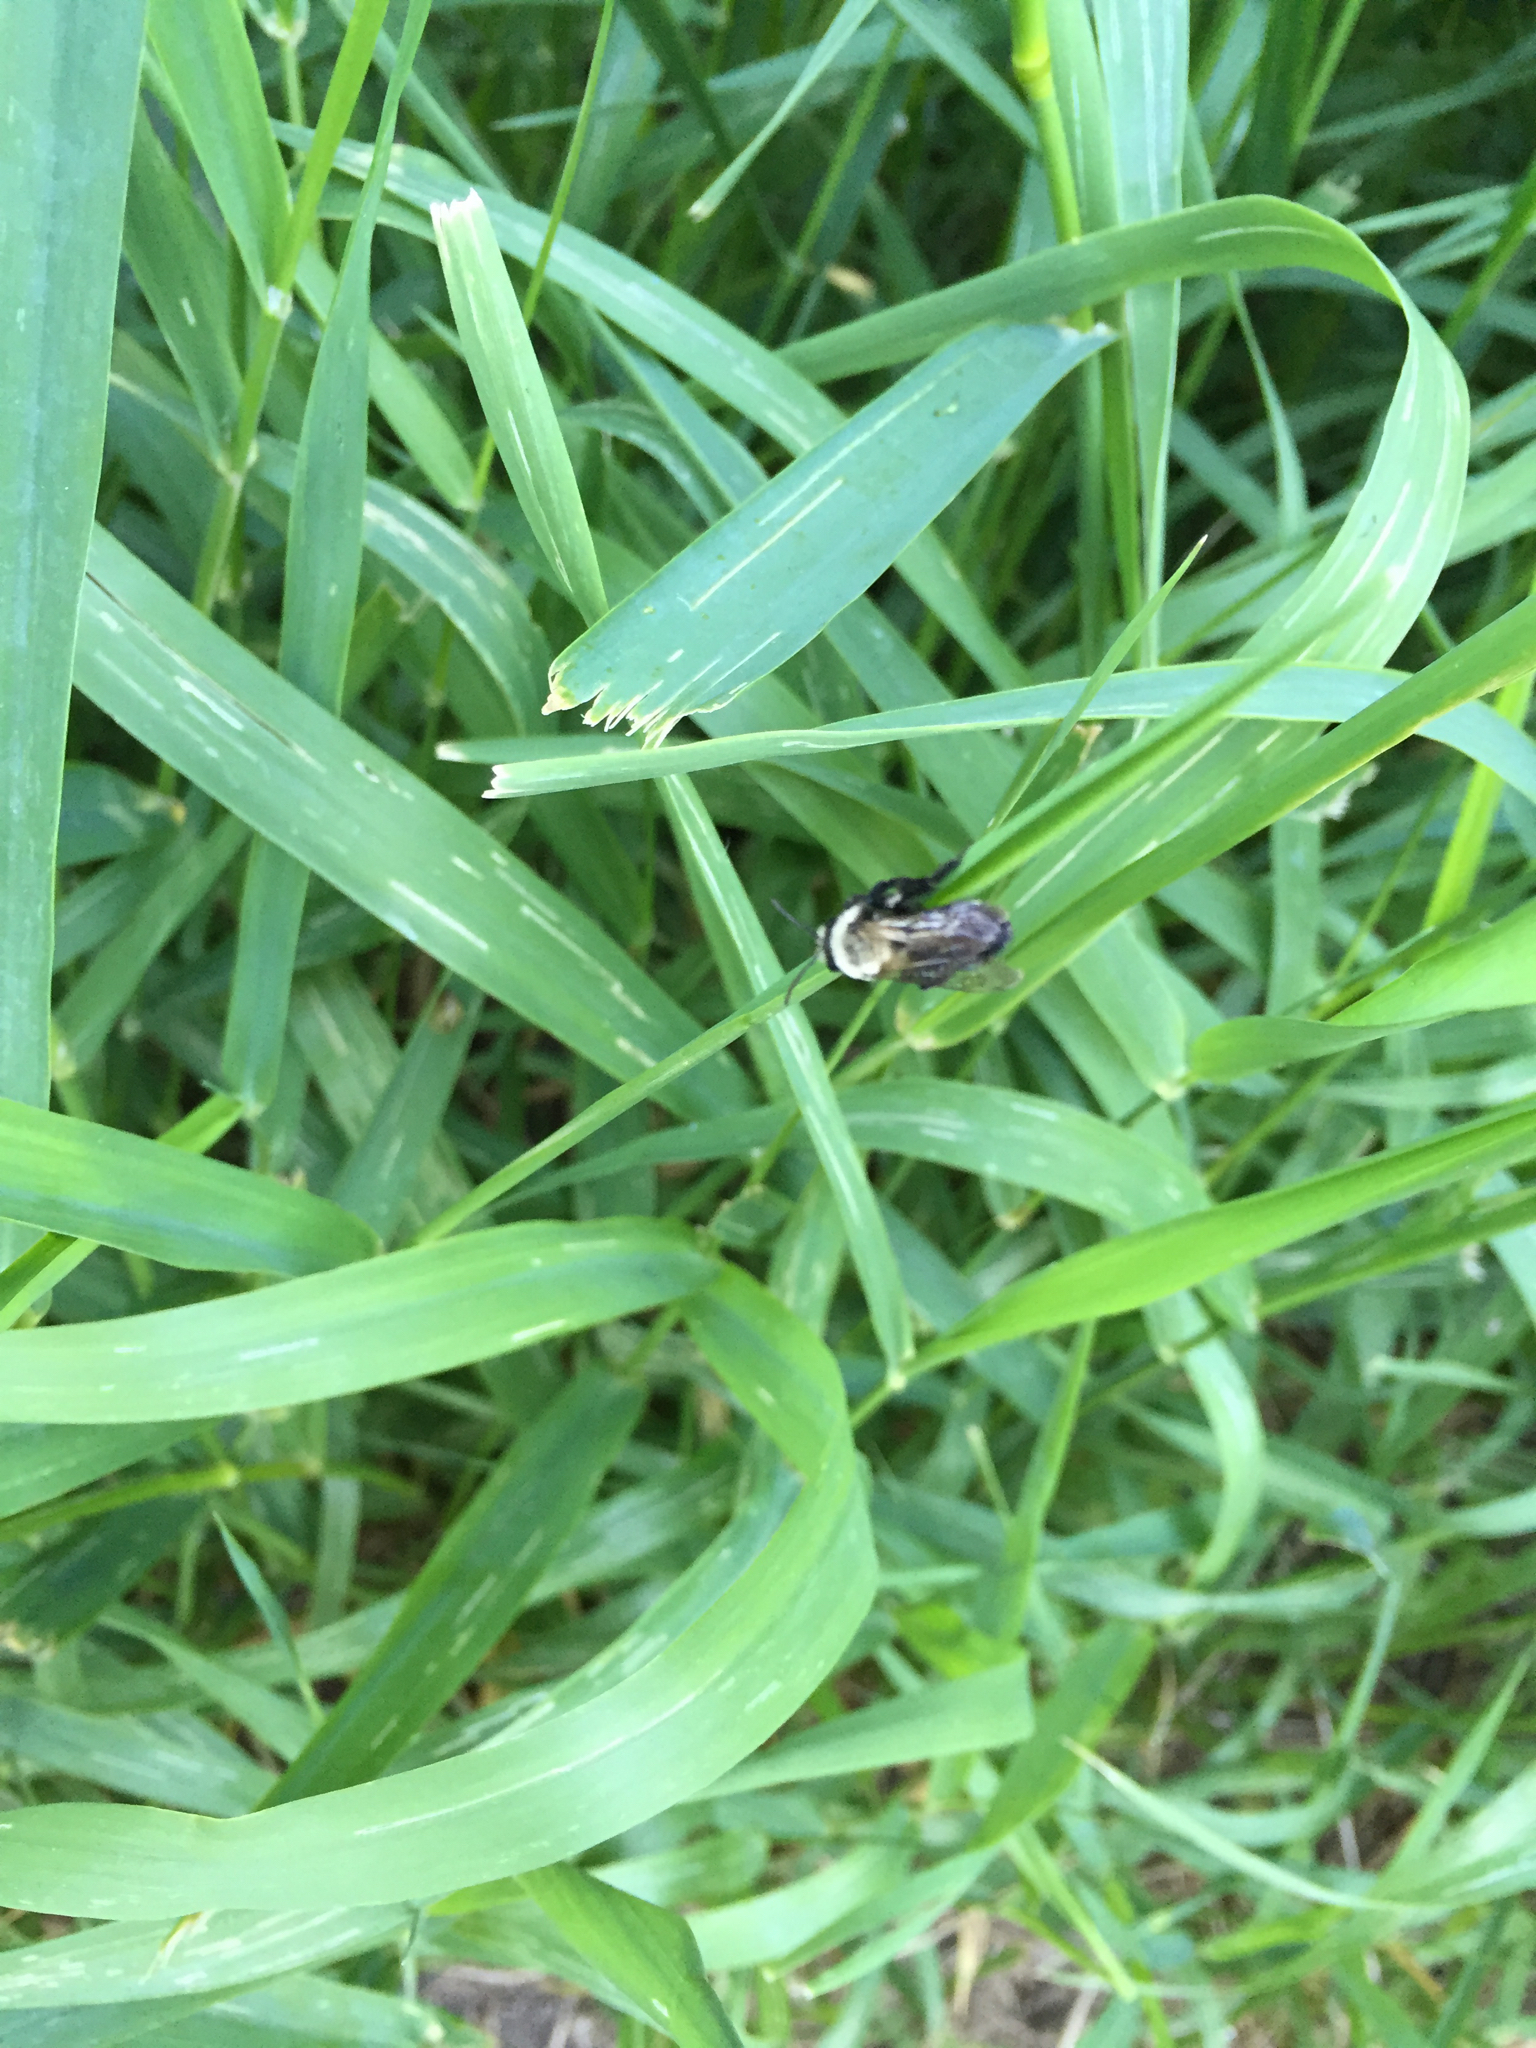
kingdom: Animalia
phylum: Arthropoda
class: Insecta
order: Hymenoptera
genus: Melandrena
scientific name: Melandrena
